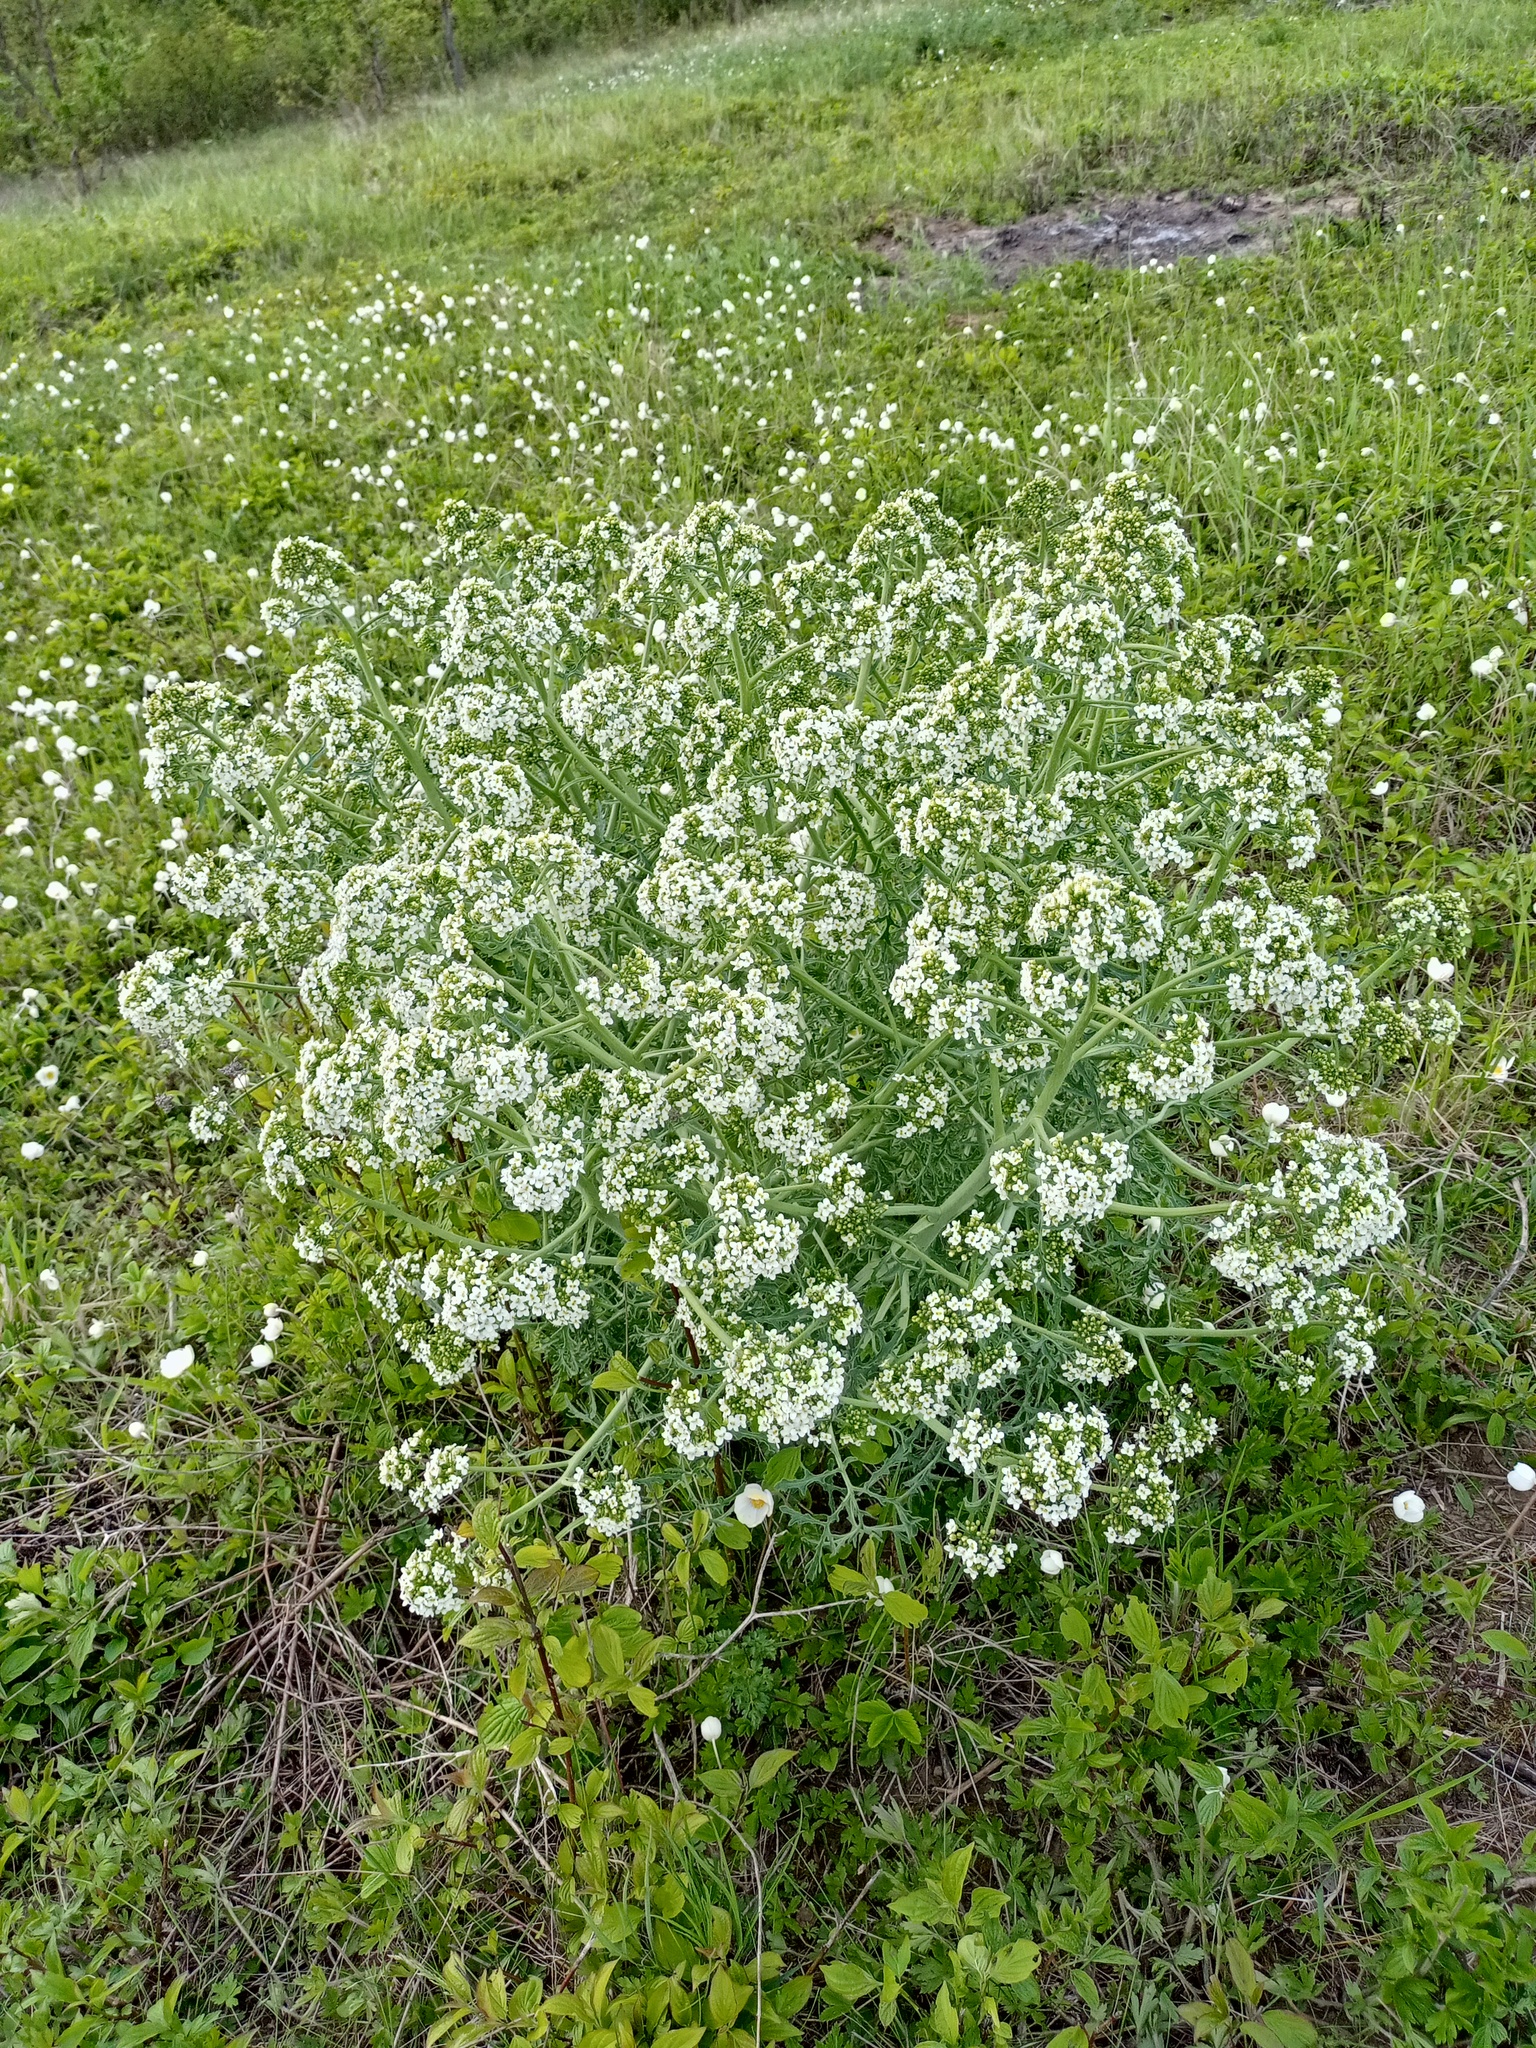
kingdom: Plantae
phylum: Tracheophyta
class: Magnoliopsida
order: Brassicales
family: Brassicaceae
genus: Crambe
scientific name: Crambe tataria
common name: Tartarian breadplant
